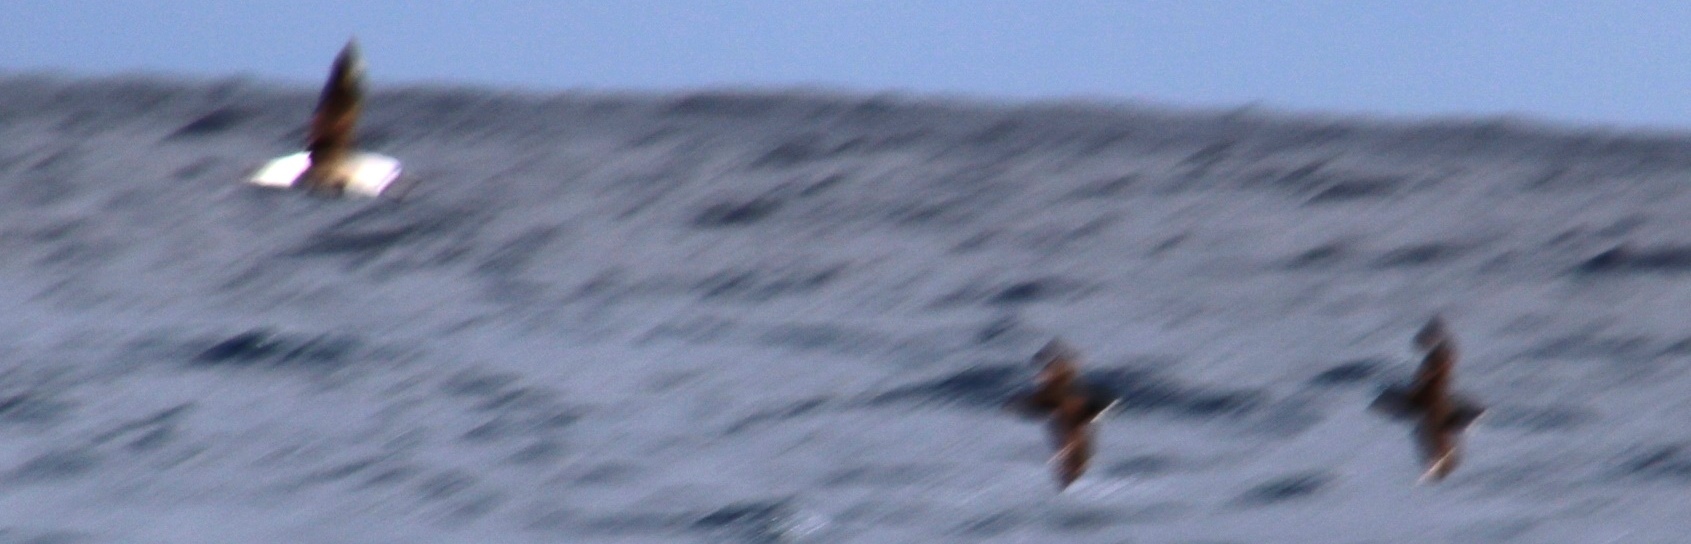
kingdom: Animalia
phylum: Chordata
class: Aves
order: Procellariiformes
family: Diomedeidae
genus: Thalassarche
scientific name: Thalassarche chlororhynchos
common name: Atlantic yellow-nosed albatross
